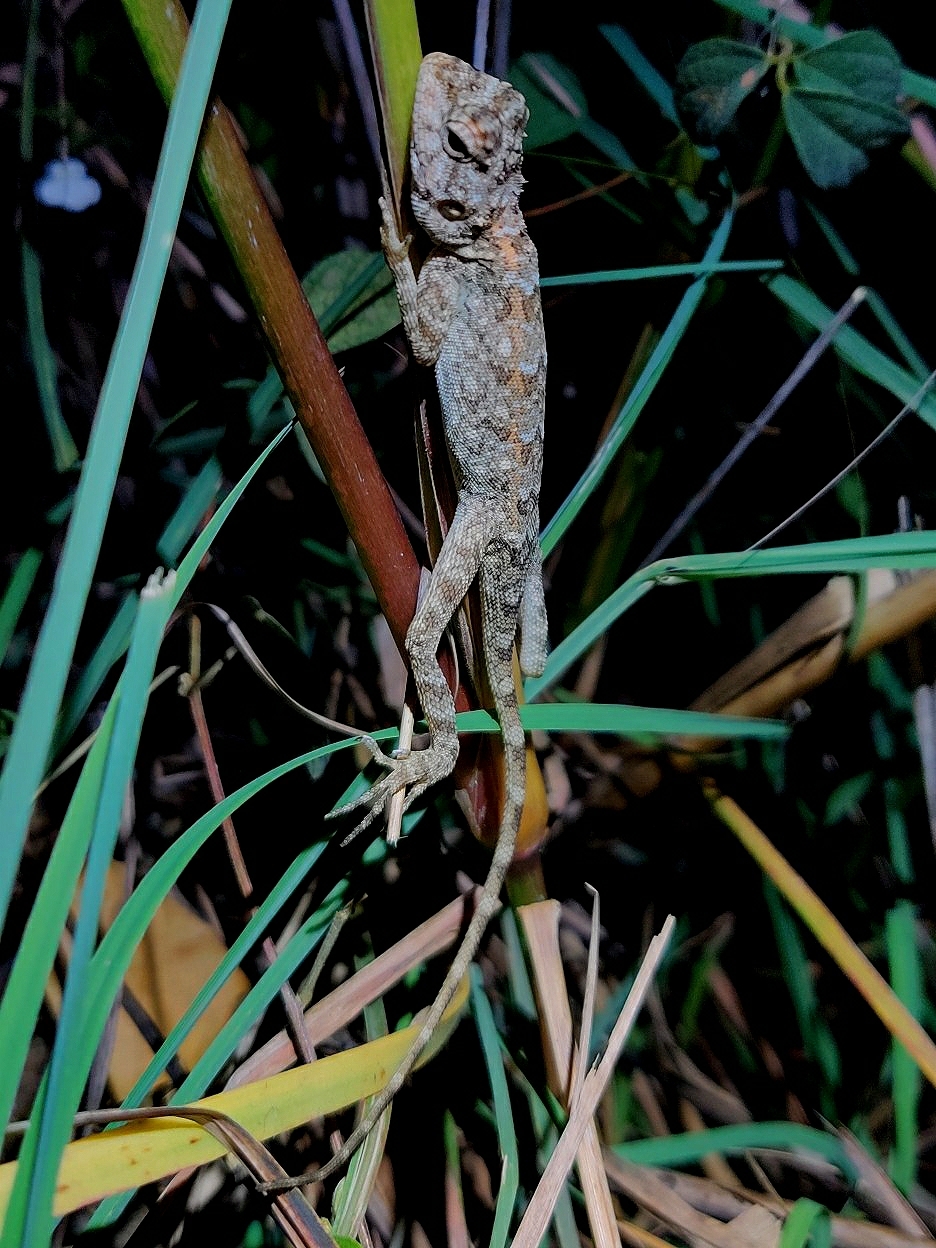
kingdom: Animalia
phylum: Chordata
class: Squamata
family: Agamidae
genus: Calotes
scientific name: Calotes versicolor
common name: Oriental garden lizard
